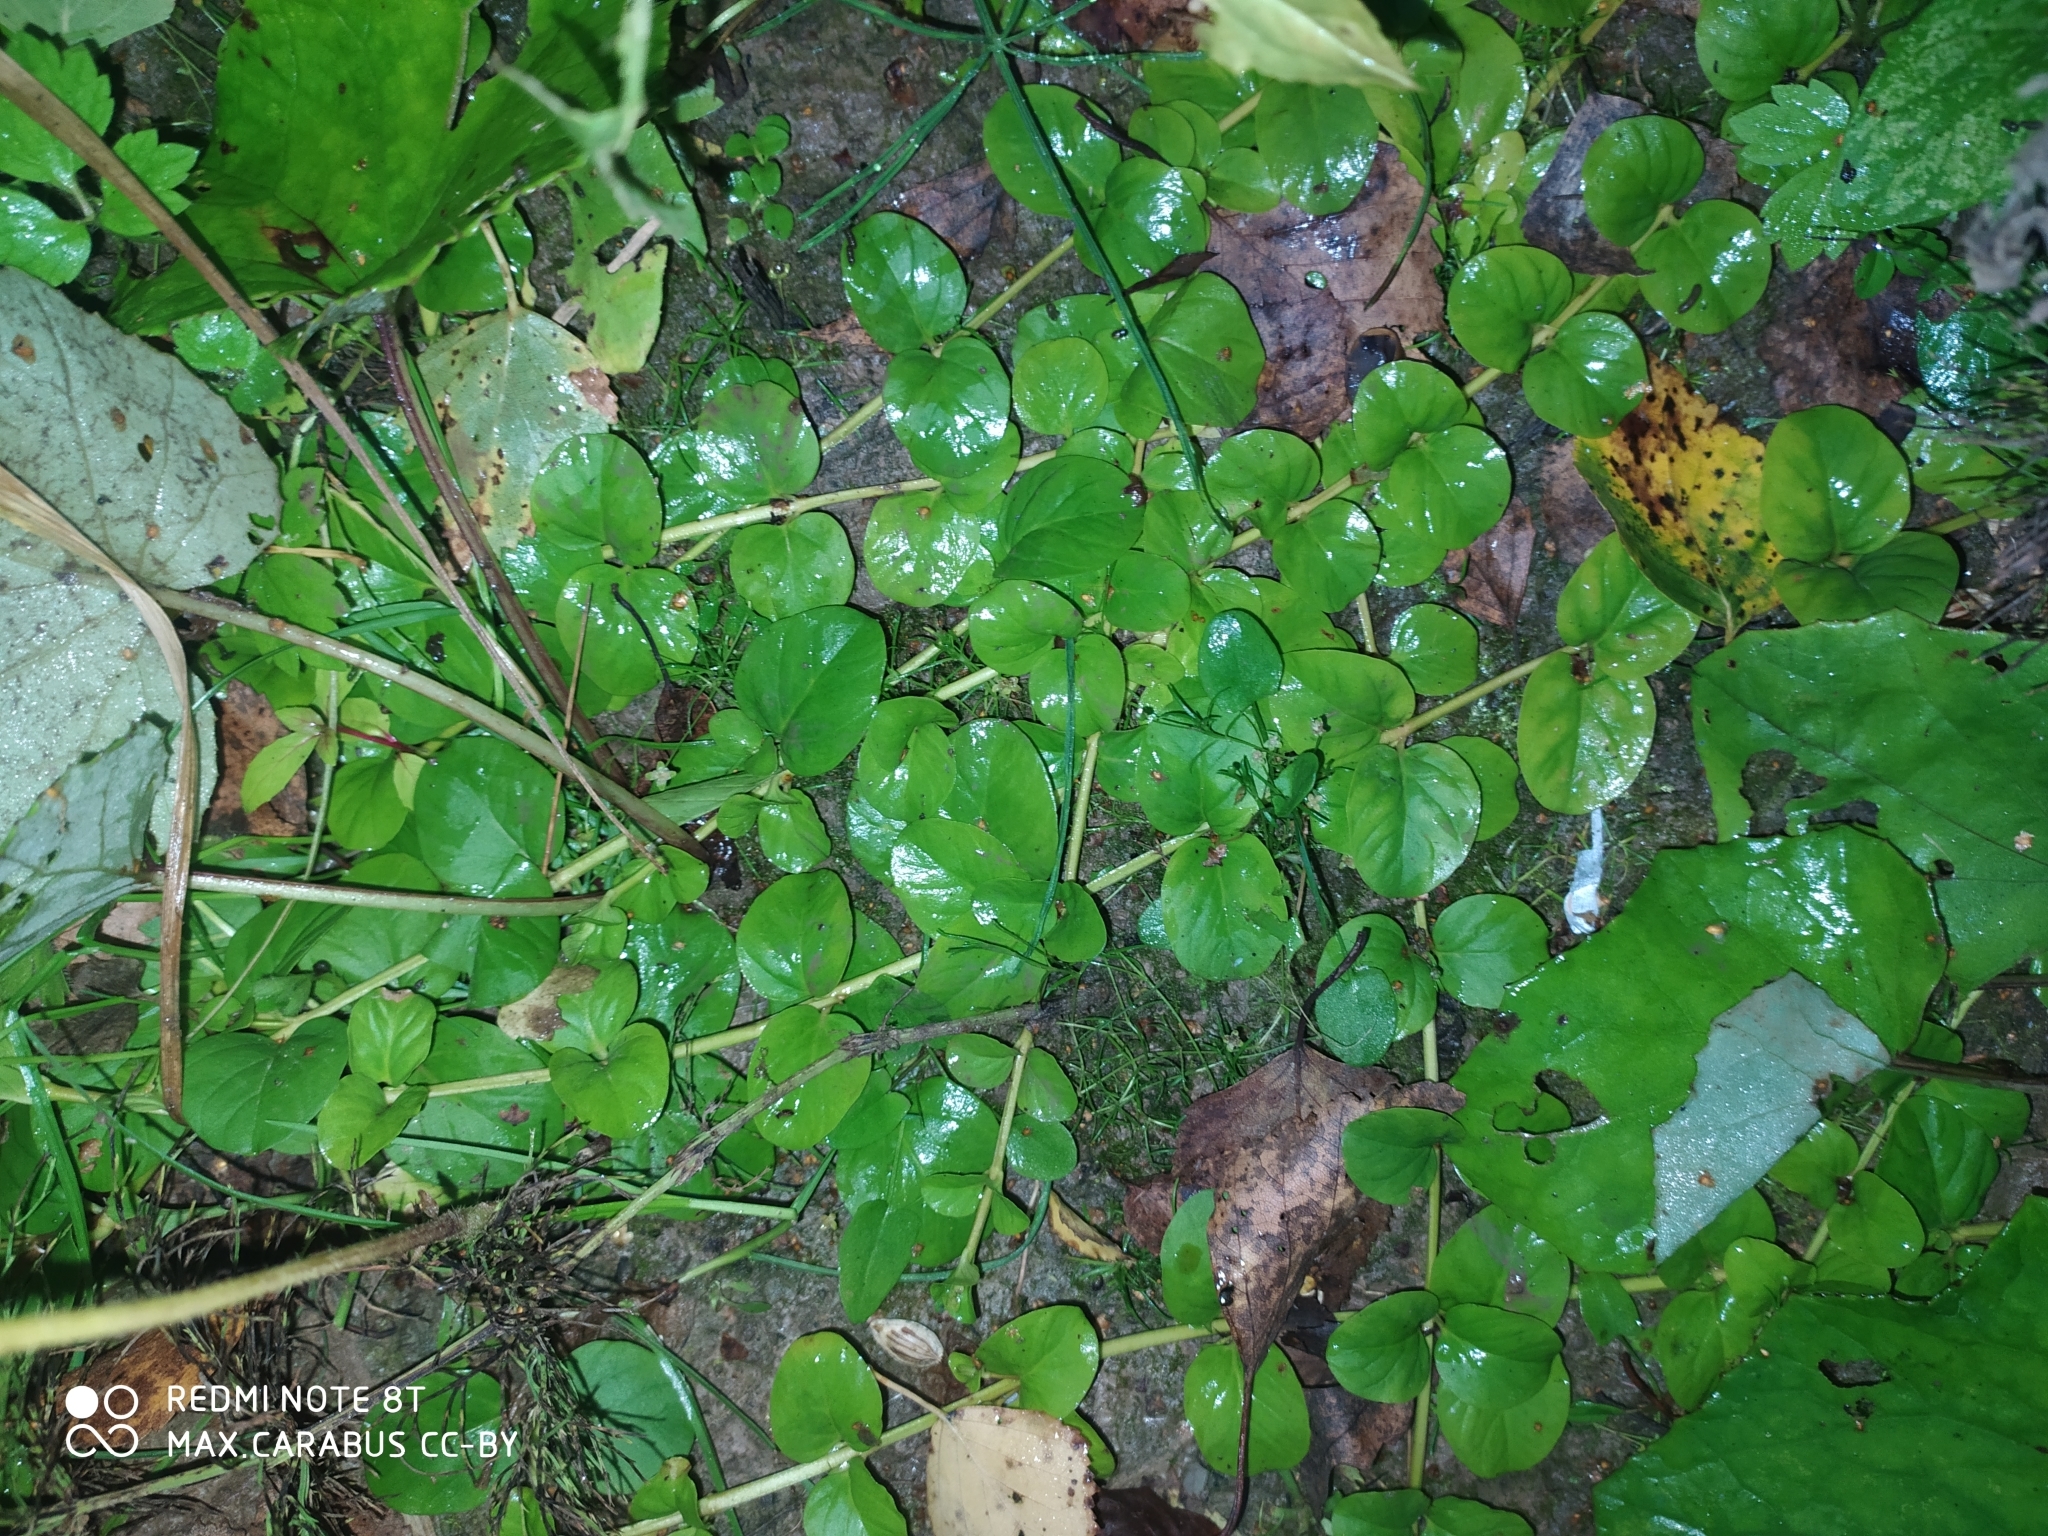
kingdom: Plantae
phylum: Tracheophyta
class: Magnoliopsida
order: Ericales
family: Primulaceae
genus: Lysimachia
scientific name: Lysimachia nummularia
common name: Moneywort
